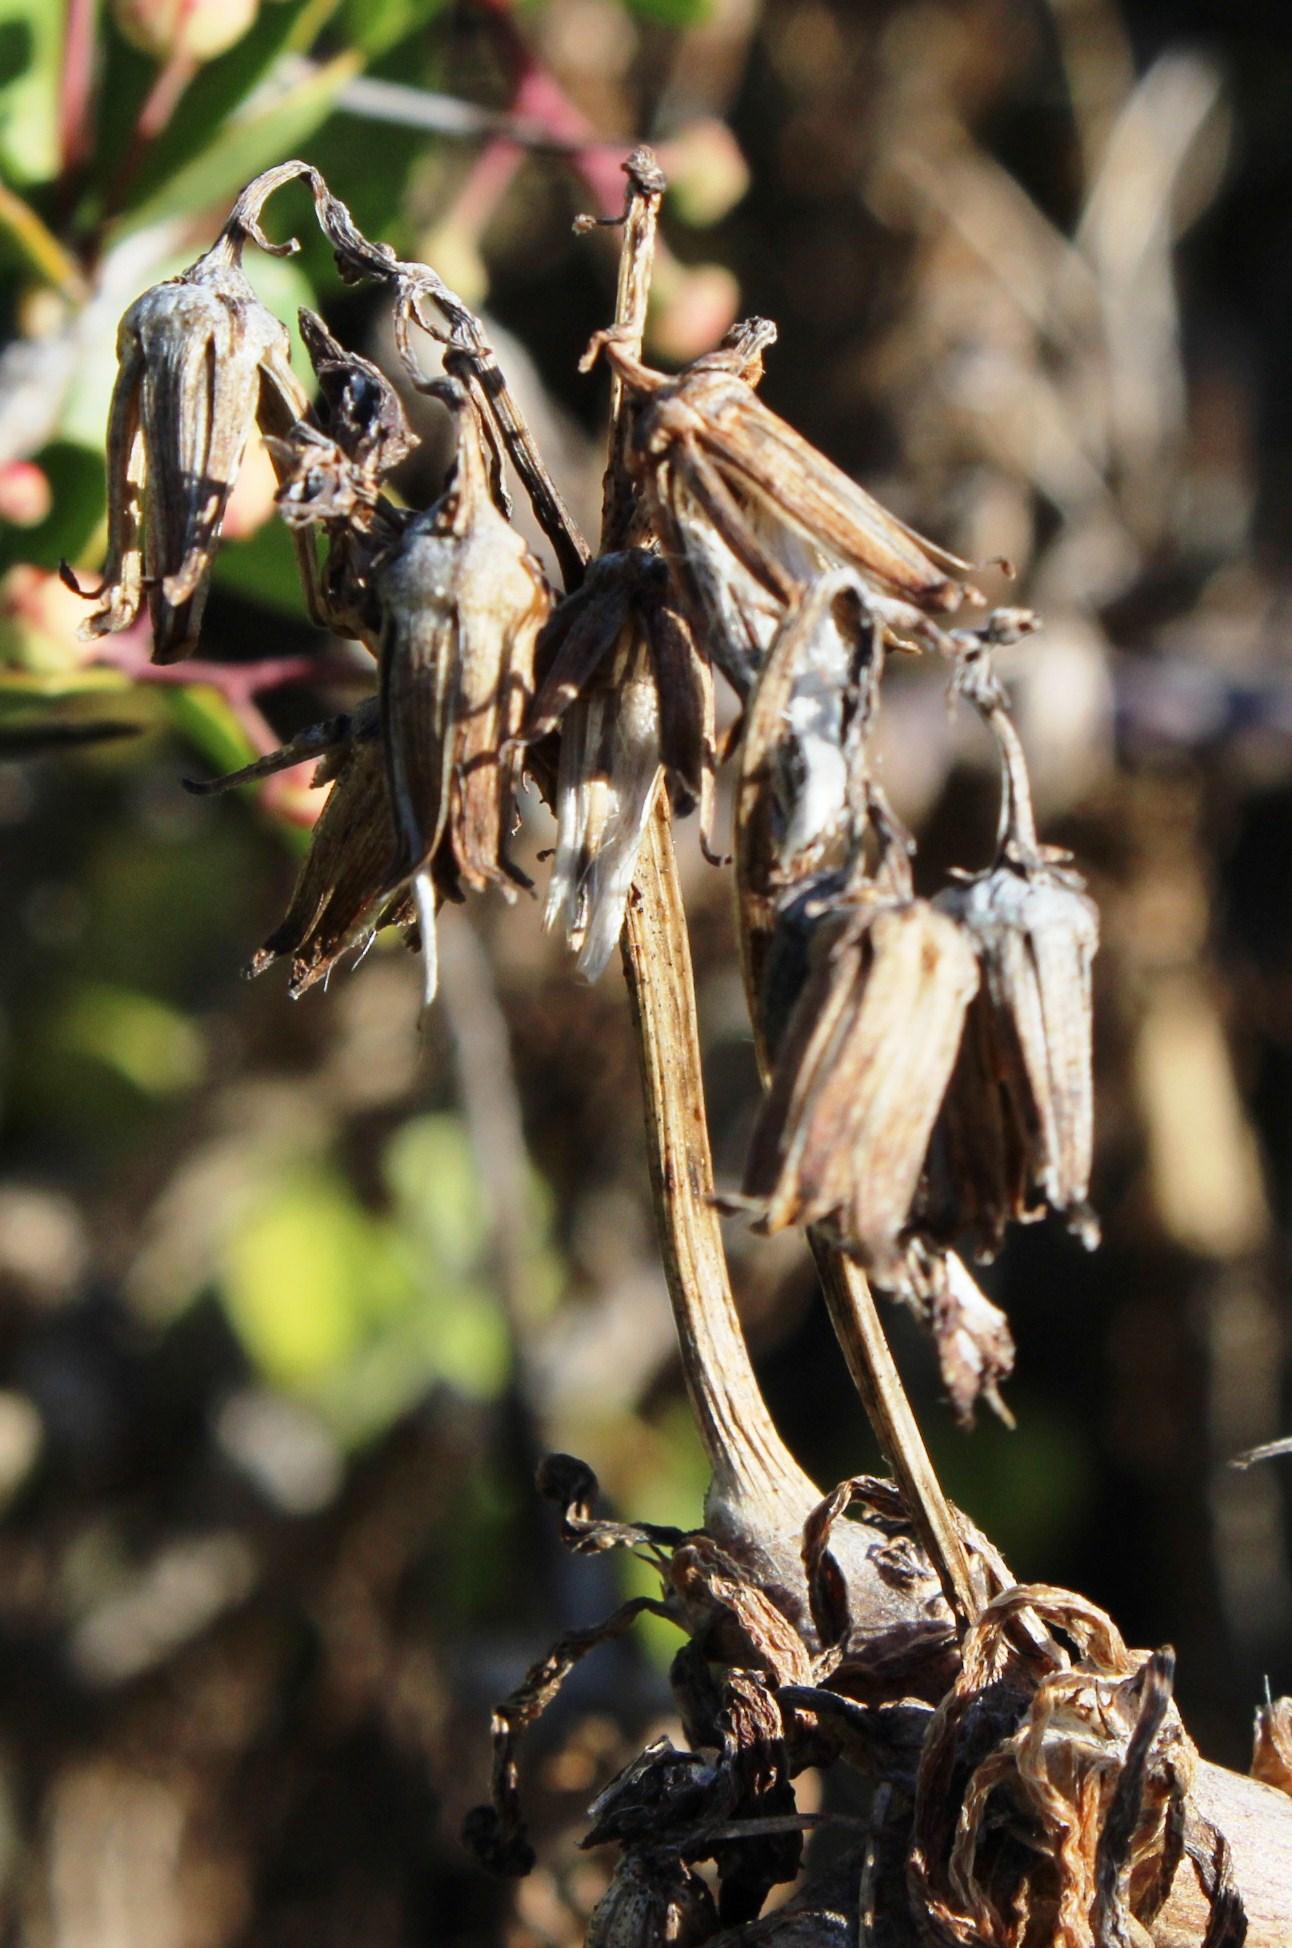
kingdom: Plantae
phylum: Tracheophyta
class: Magnoliopsida
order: Asterales
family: Asteraceae
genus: Curio
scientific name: Curio corymbifer
